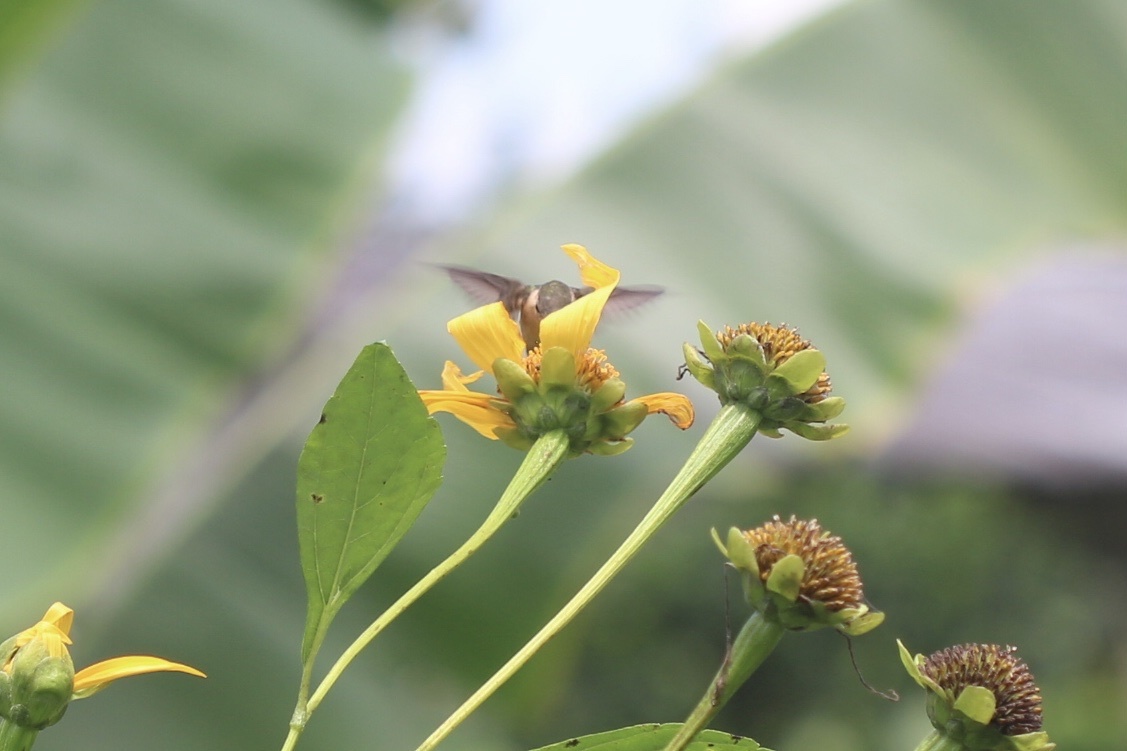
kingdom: Animalia
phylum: Chordata
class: Aves
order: Apodiformes
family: Trochilidae
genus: Chaetocercus
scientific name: Chaetocercus bombus
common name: Little woodstar
